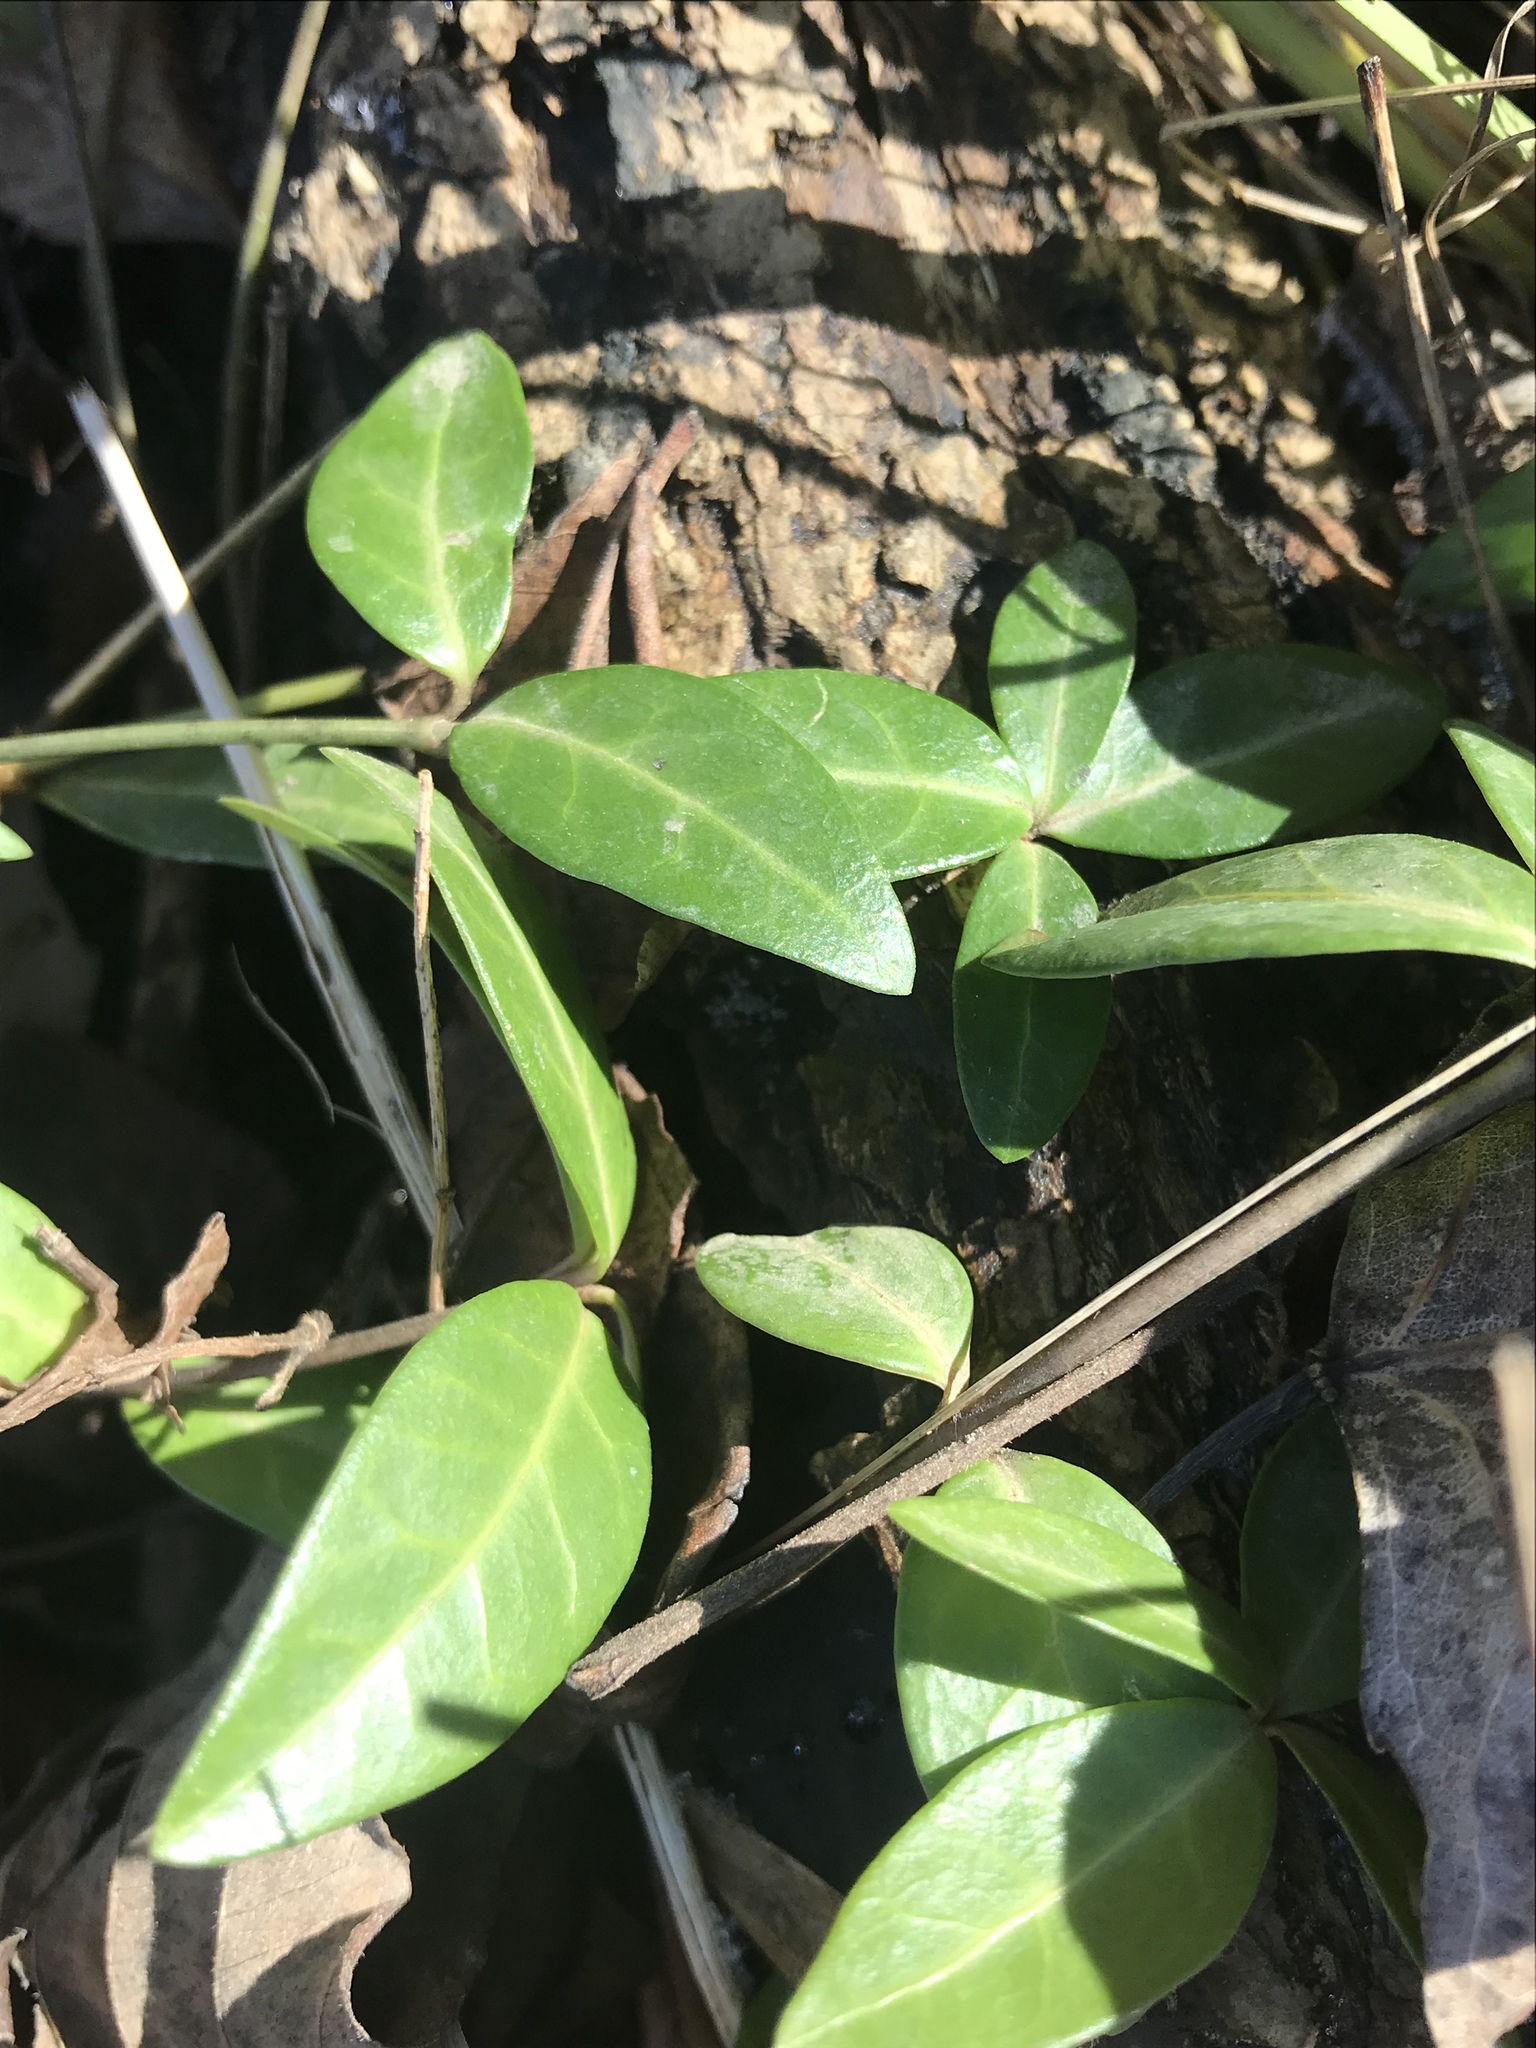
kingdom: Plantae
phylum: Tracheophyta
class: Magnoliopsida
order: Gentianales
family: Apocynaceae
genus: Vinca
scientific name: Vinca minor
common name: Lesser periwinkle
